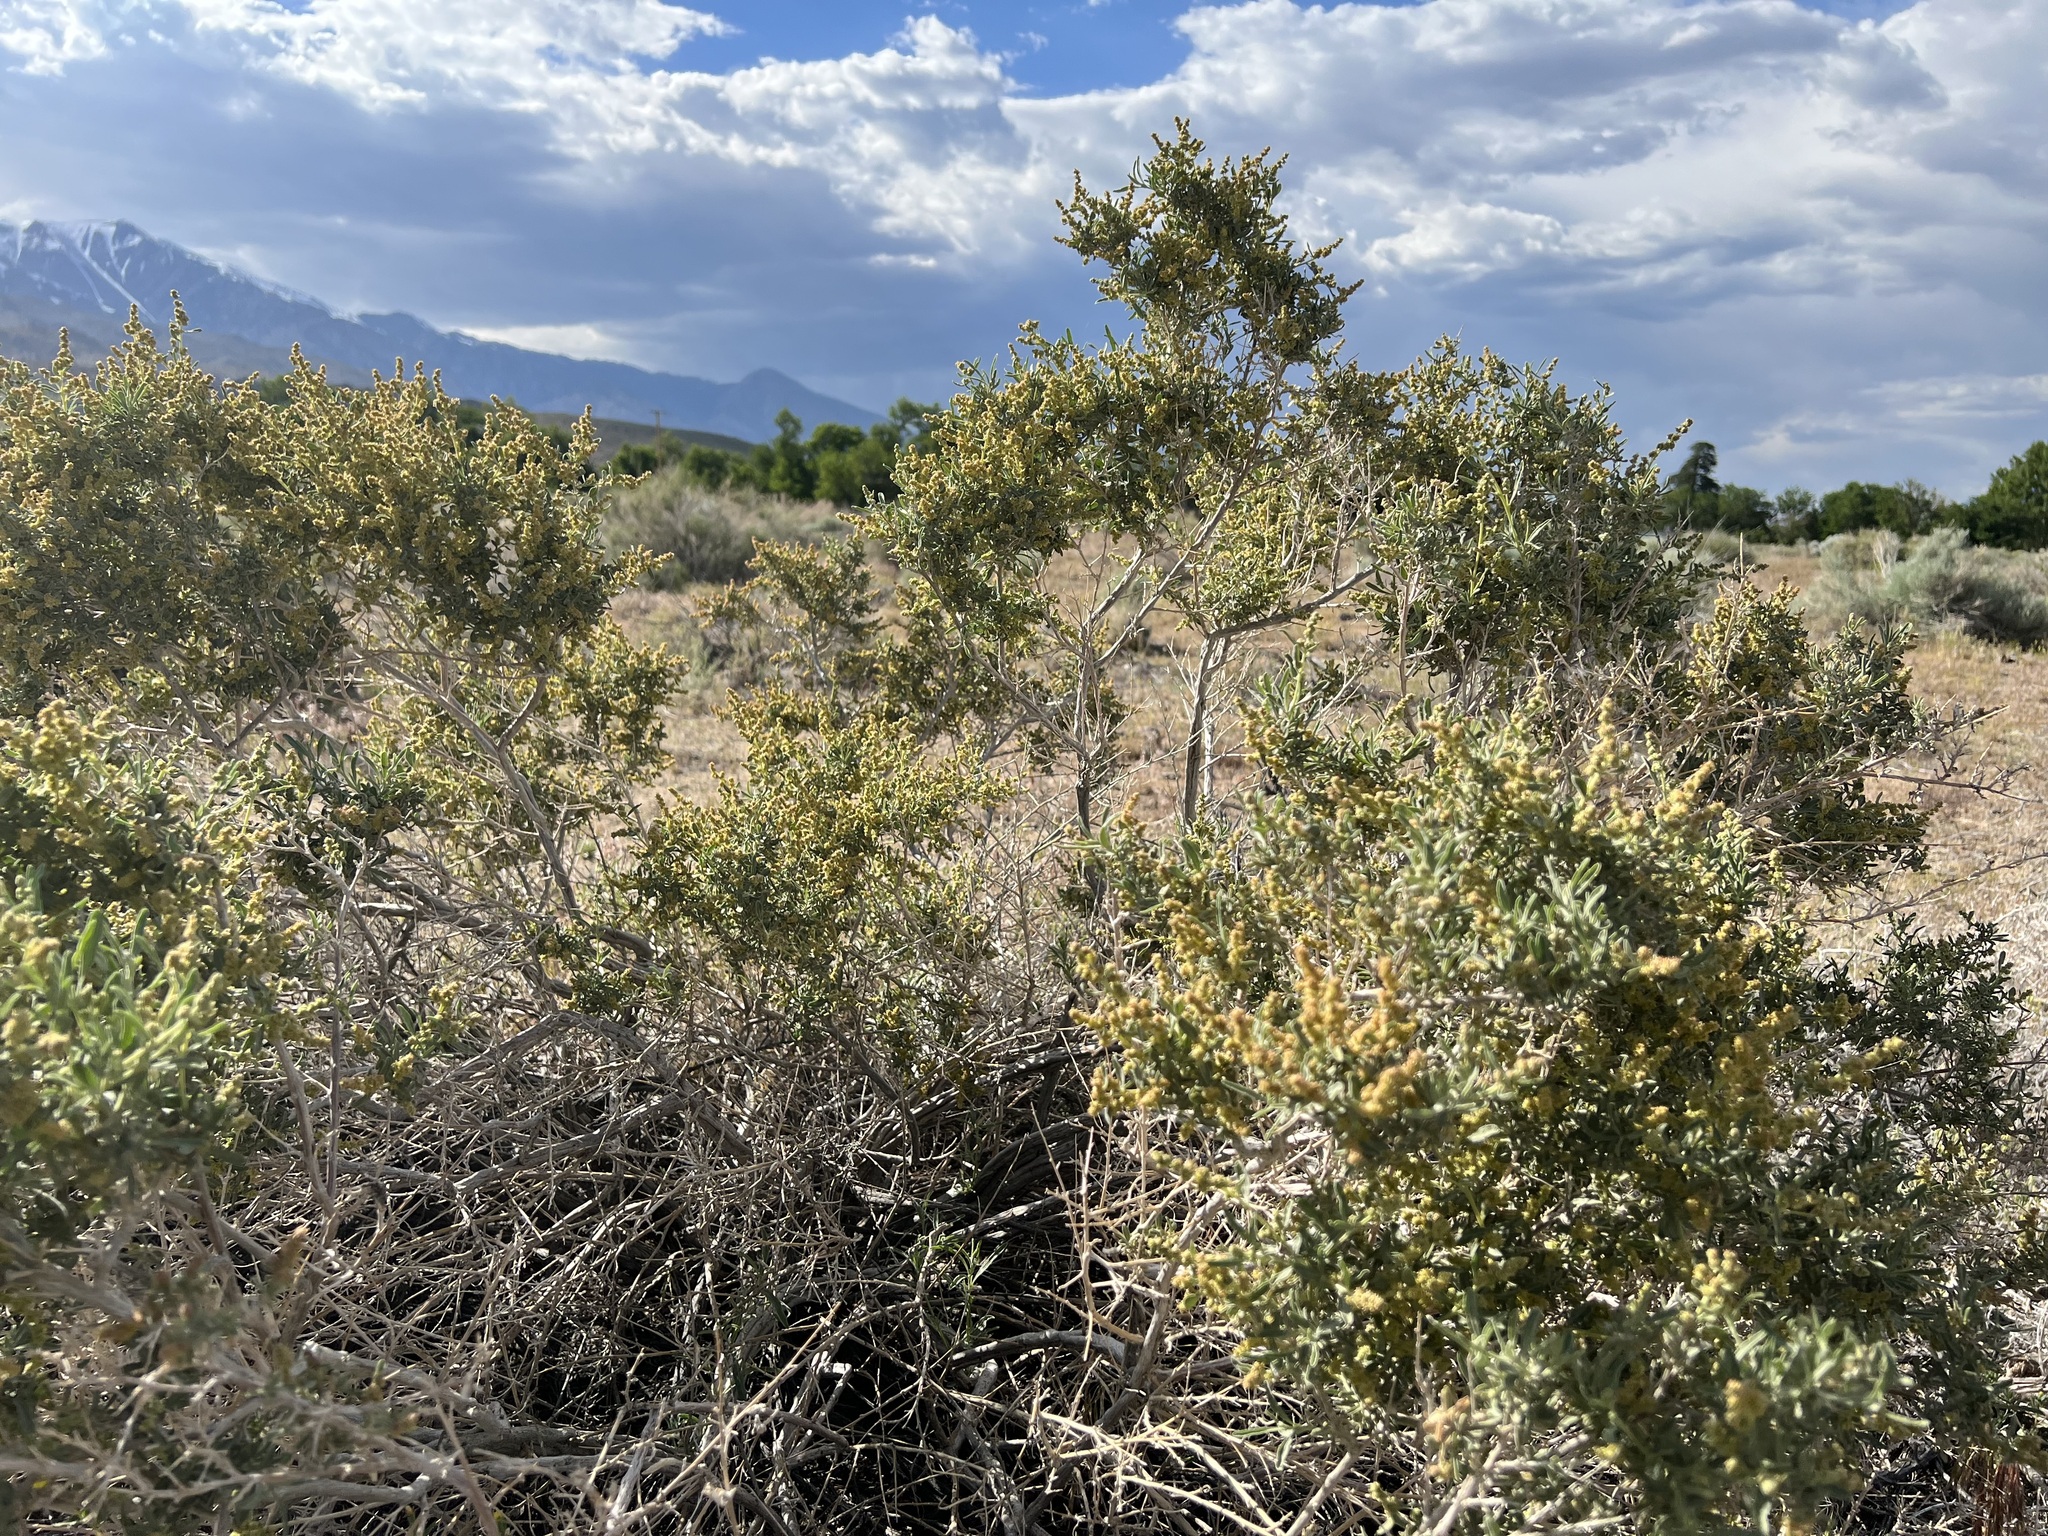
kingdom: Plantae
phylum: Tracheophyta
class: Magnoliopsida
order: Caryophyllales
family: Amaranthaceae
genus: Atriplex
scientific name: Atriplex canescens
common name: Four-wing saltbush
